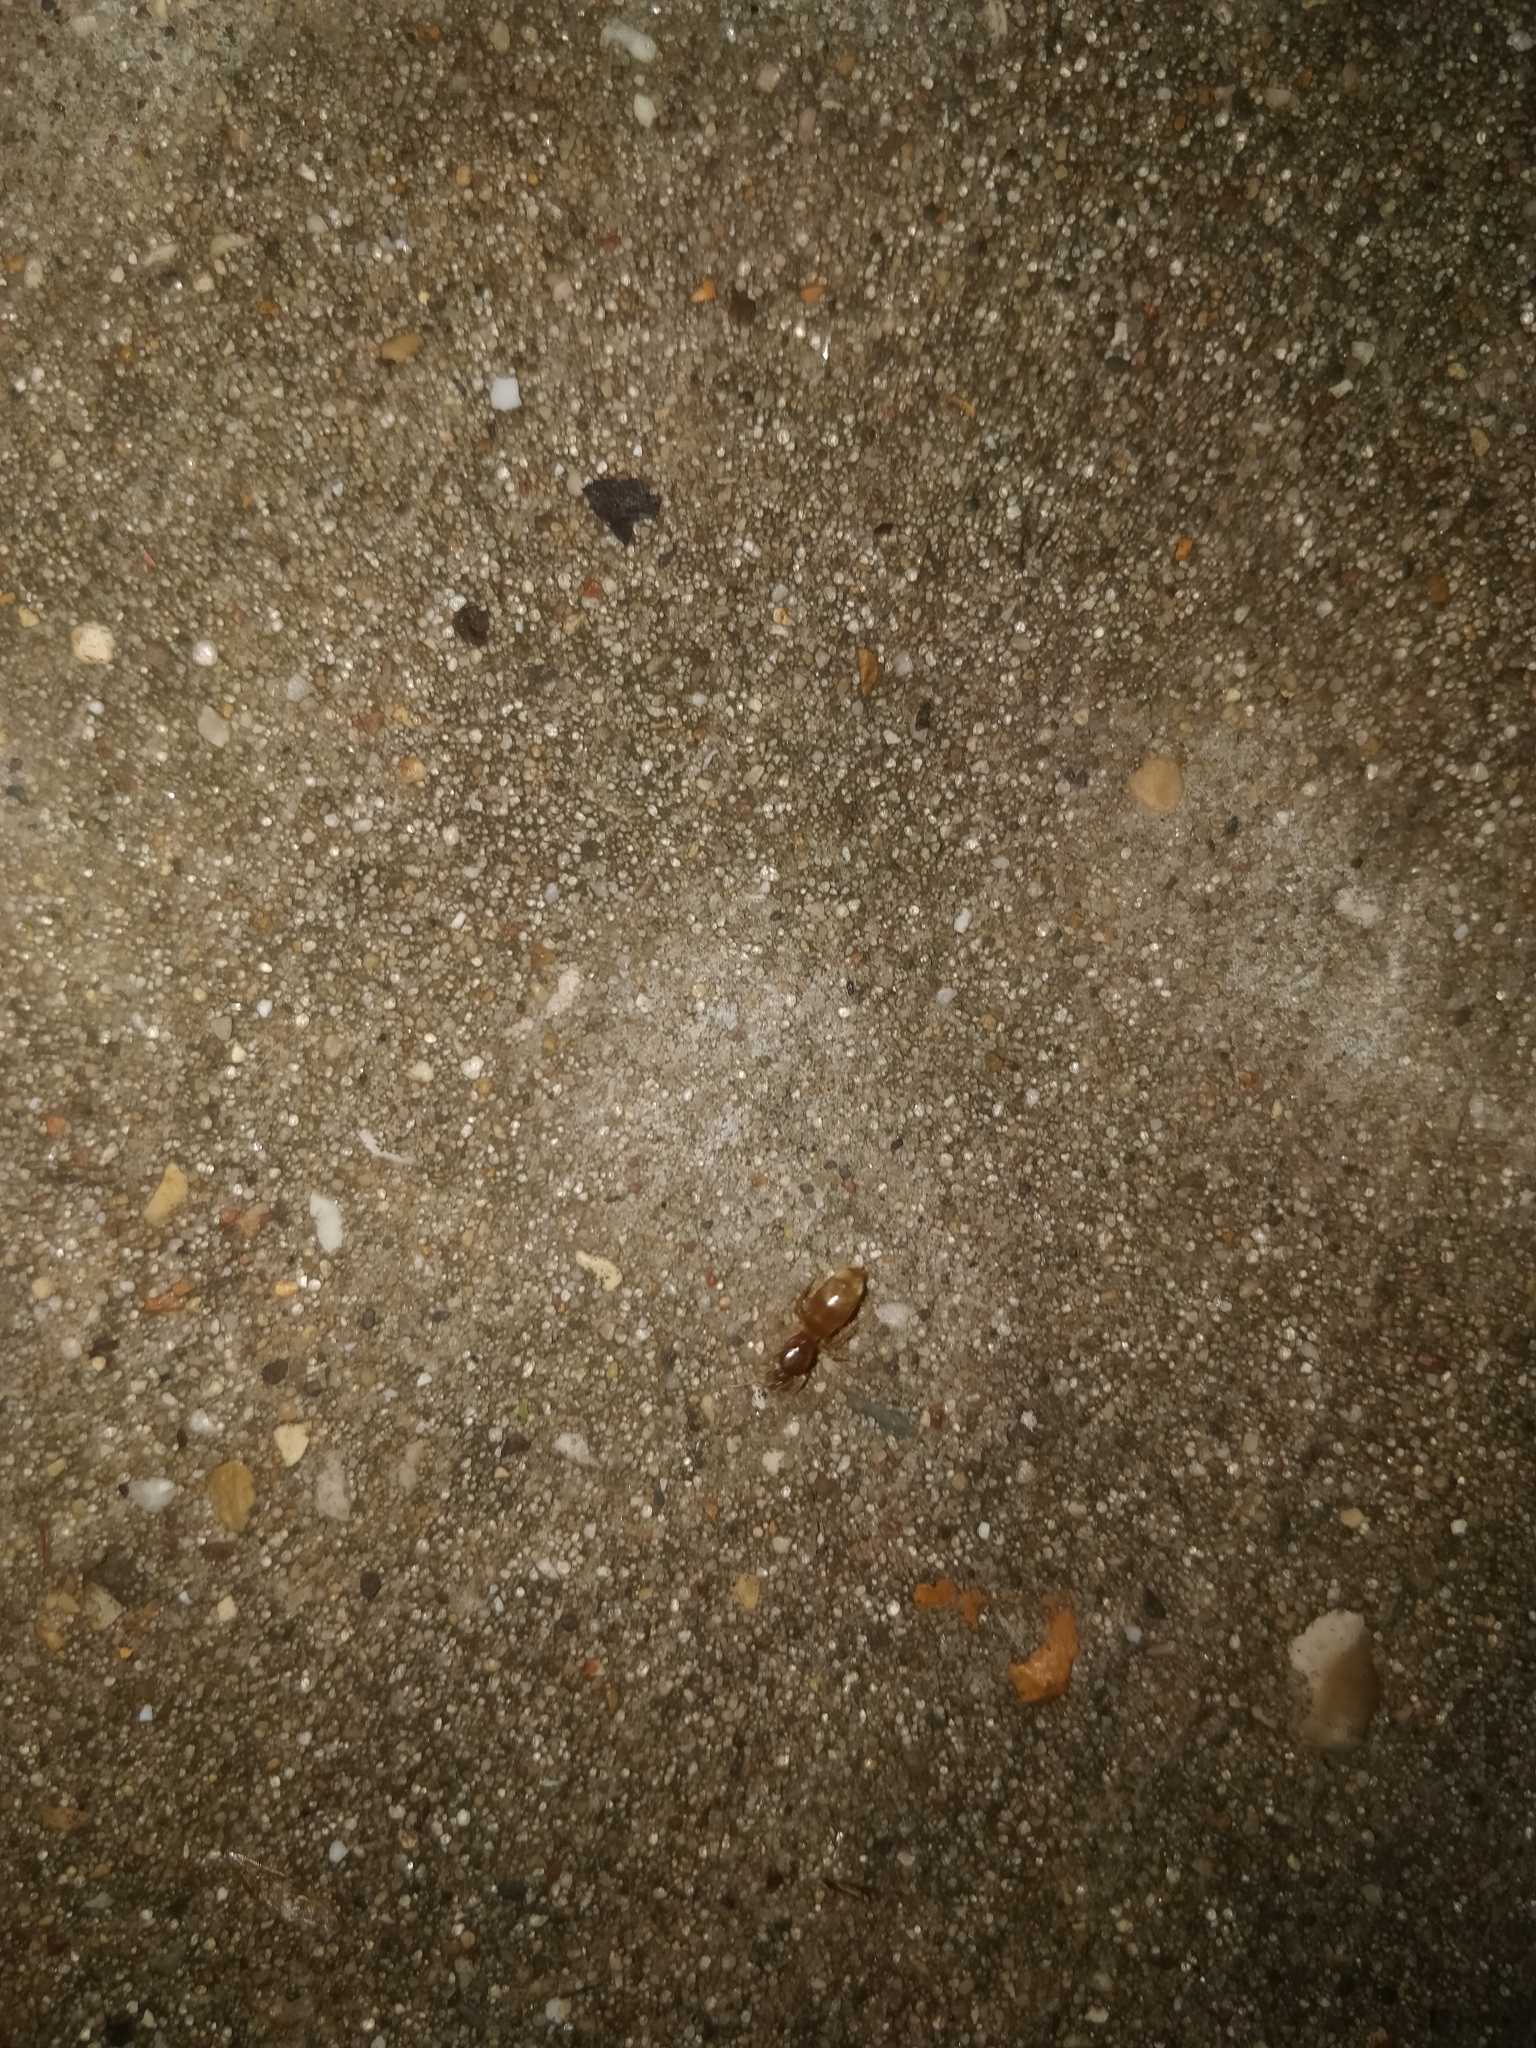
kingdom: Animalia
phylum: Arthropoda
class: Insecta
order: Hymenoptera
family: Formicidae
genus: Lasius
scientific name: Lasius
